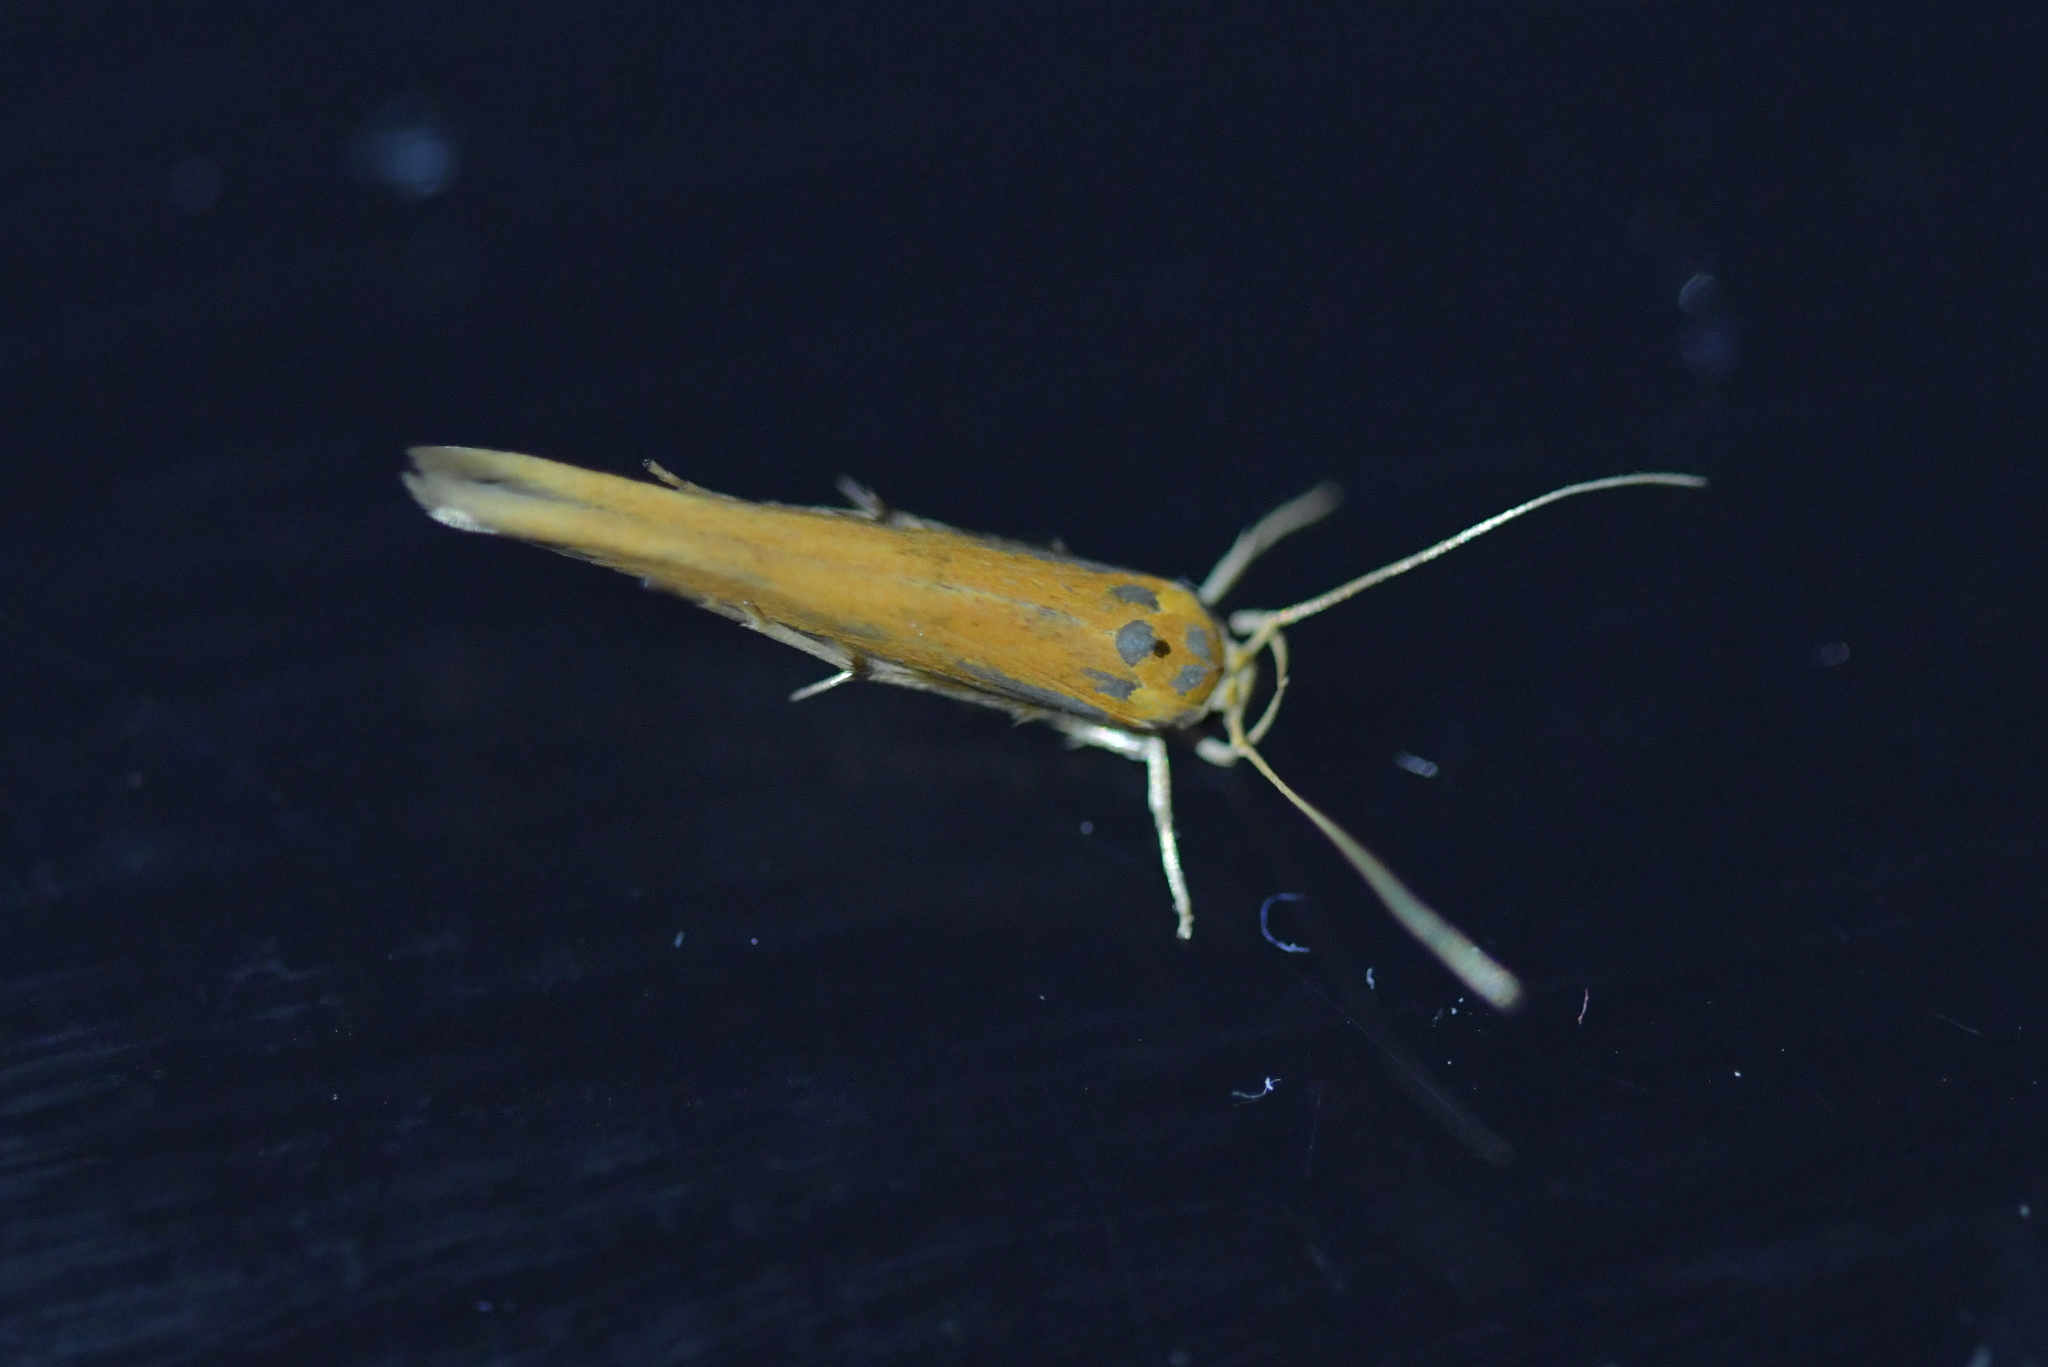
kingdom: Animalia
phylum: Arthropoda
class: Insecta
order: Lepidoptera
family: Stathmopodidae
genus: Stathmopoda
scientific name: Stathmopoda skelloni
